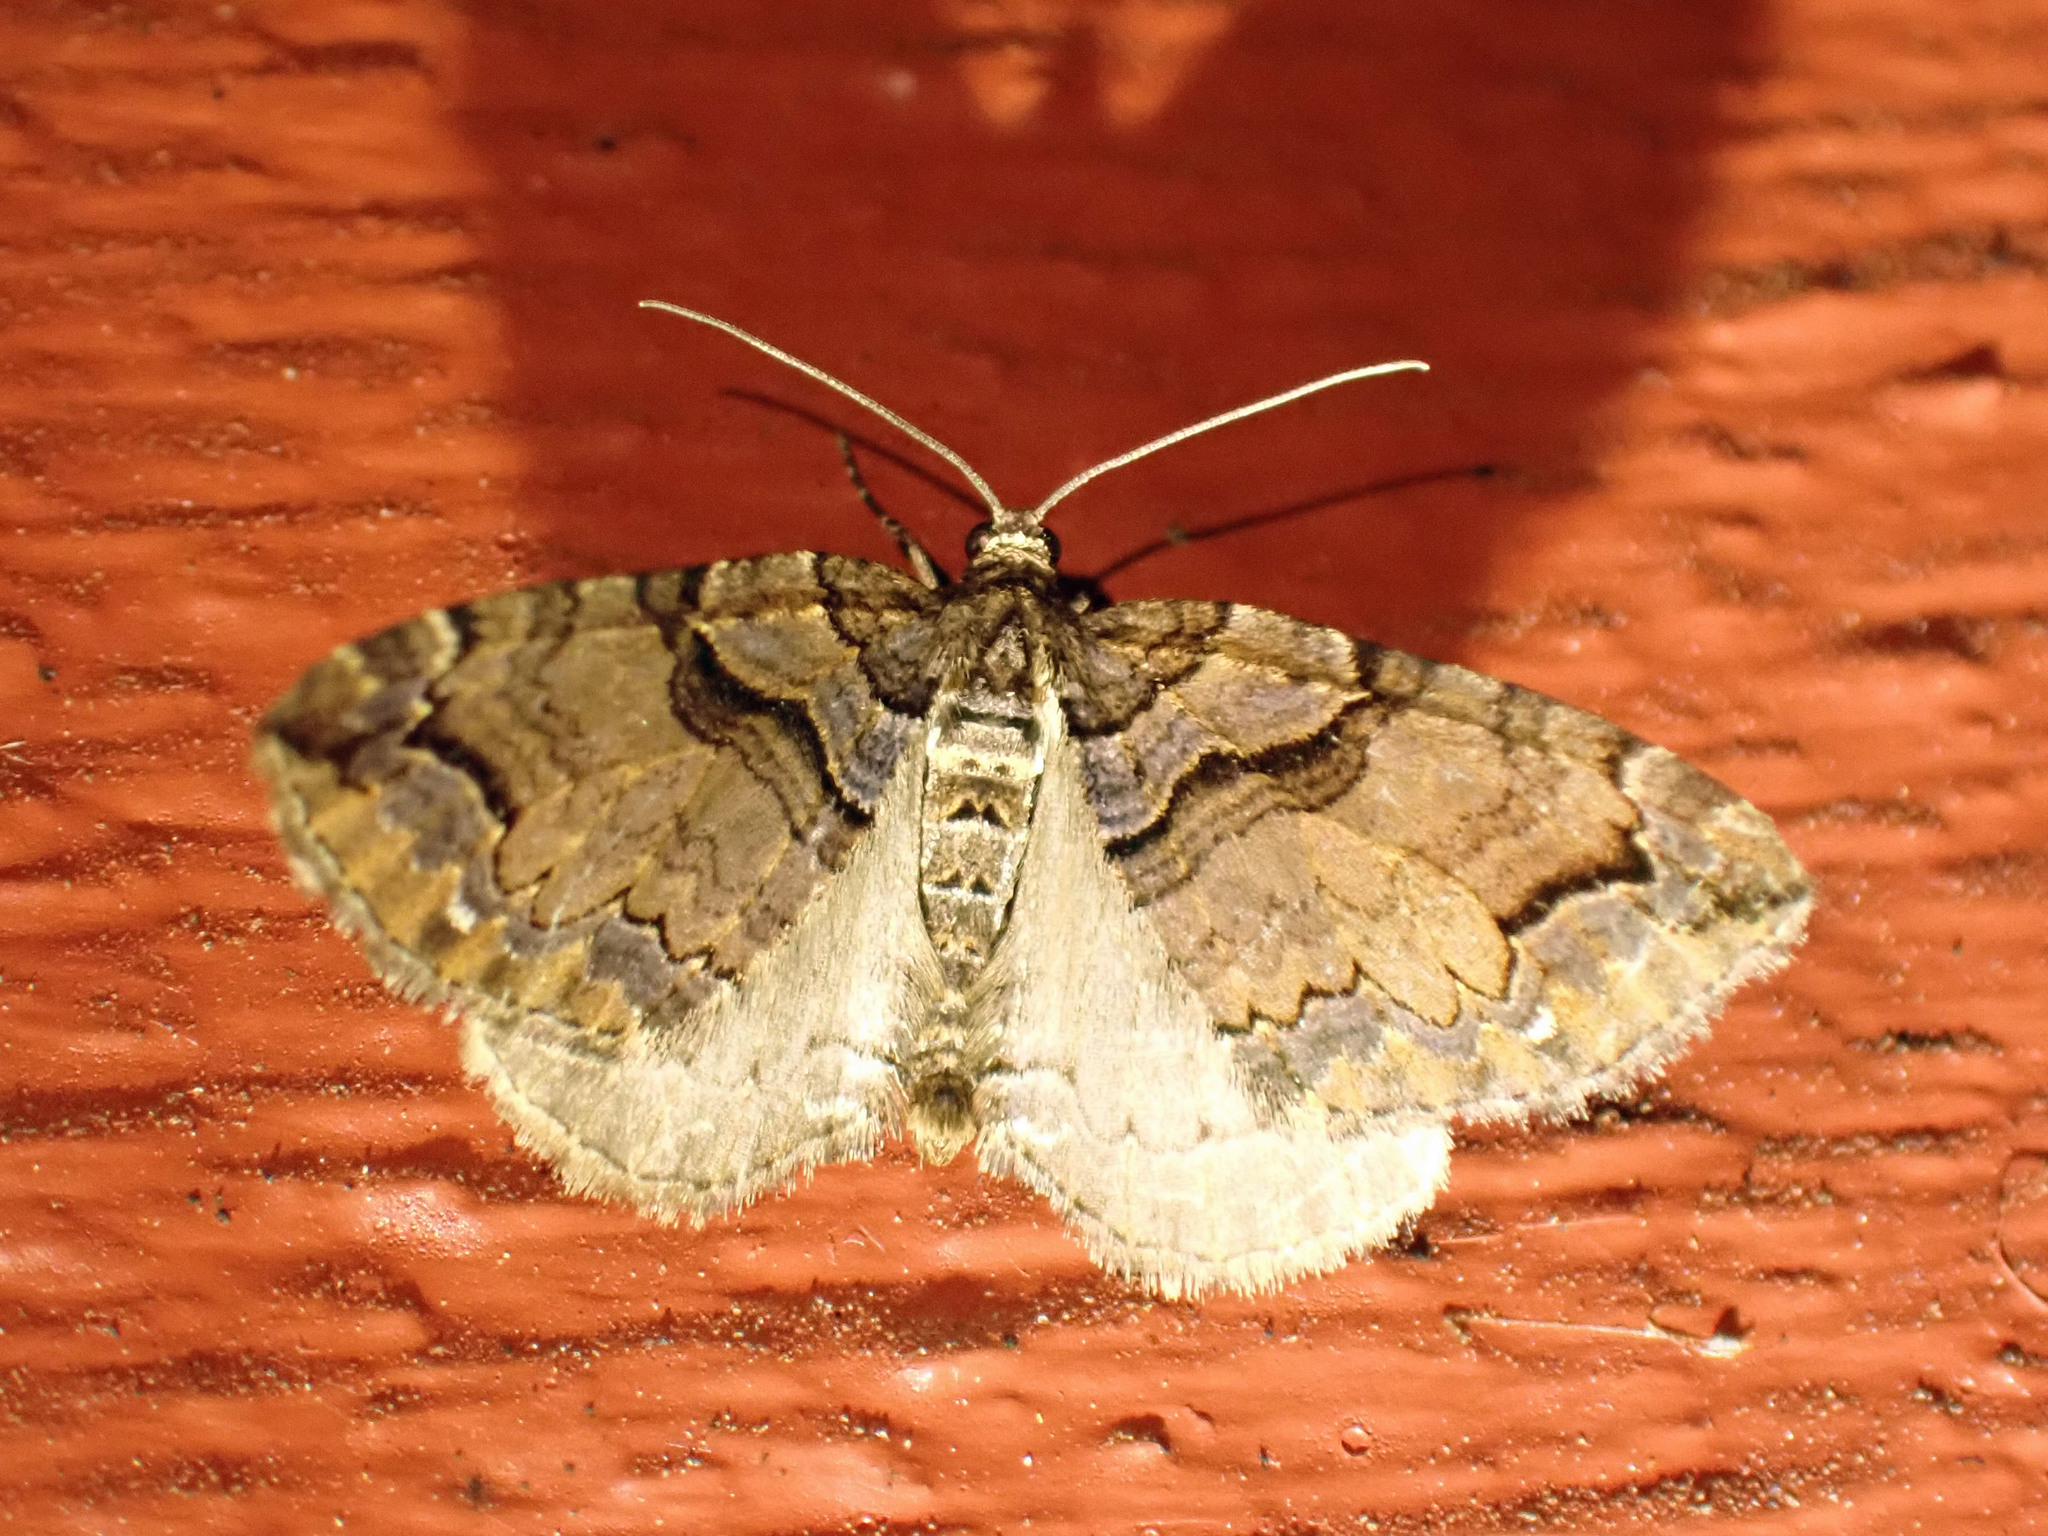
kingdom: Animalia
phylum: Arthropoda
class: Insecta
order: Lepidoptera
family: Geometridae
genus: Anticlea
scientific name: Anticlea vasiliata
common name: Variable carpet
